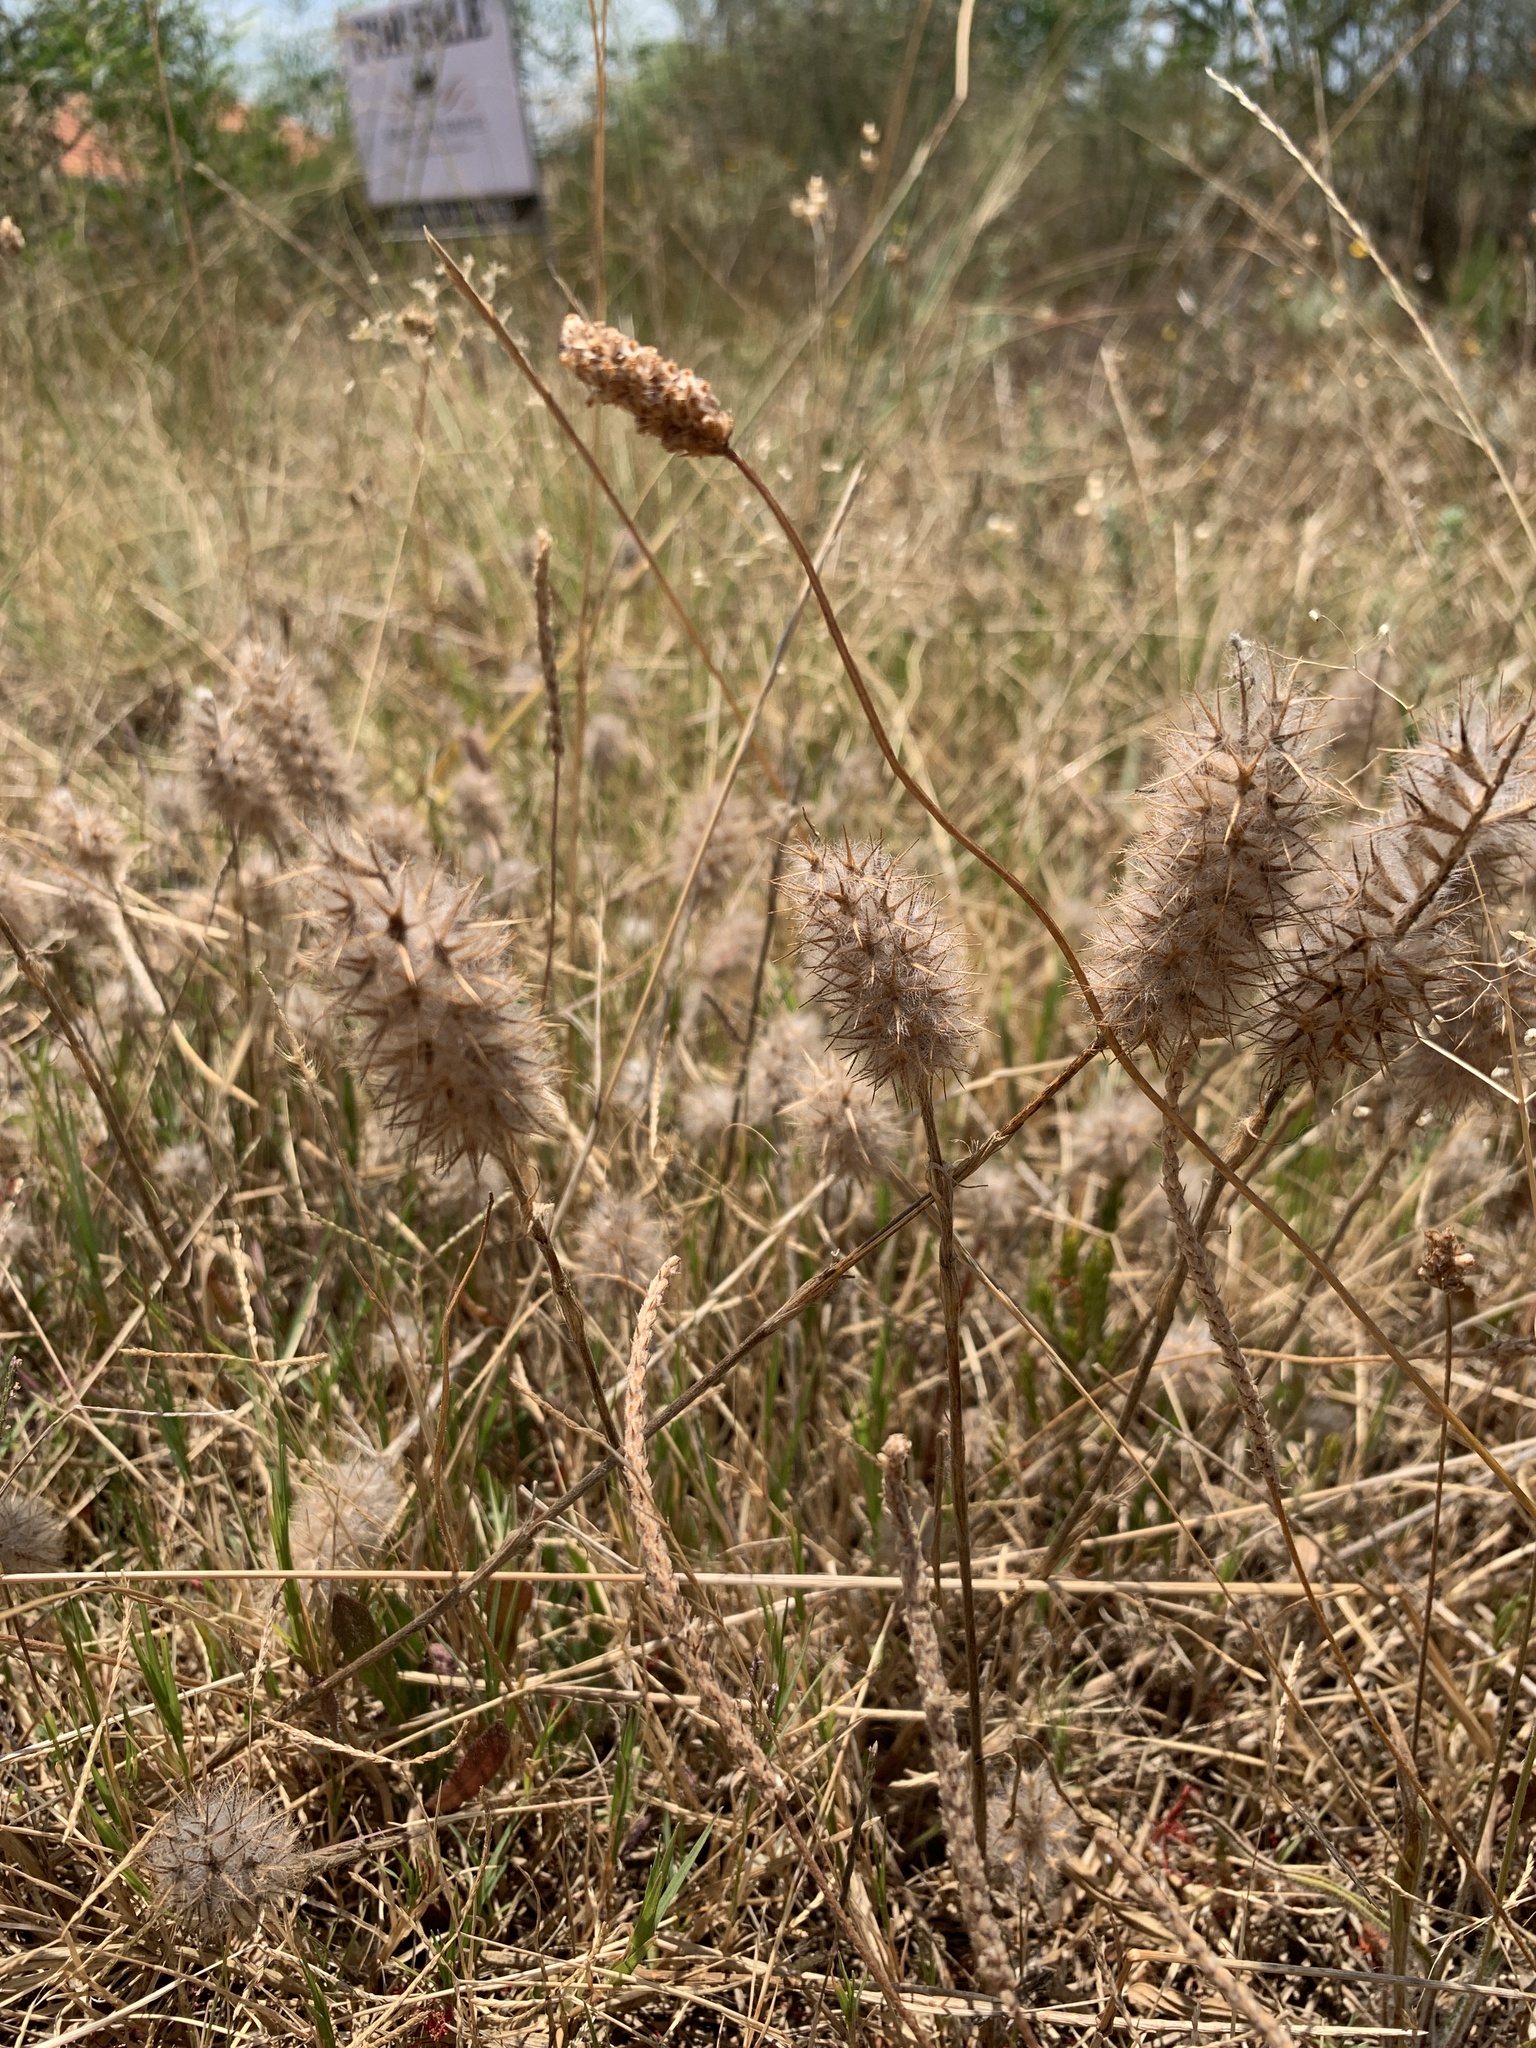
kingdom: Plantae
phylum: Tracheophyta
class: Magnoliopsida
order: Fabales
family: Fabaceae
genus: Trifolium
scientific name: Trifolium angustifolium
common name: Narrow clover
